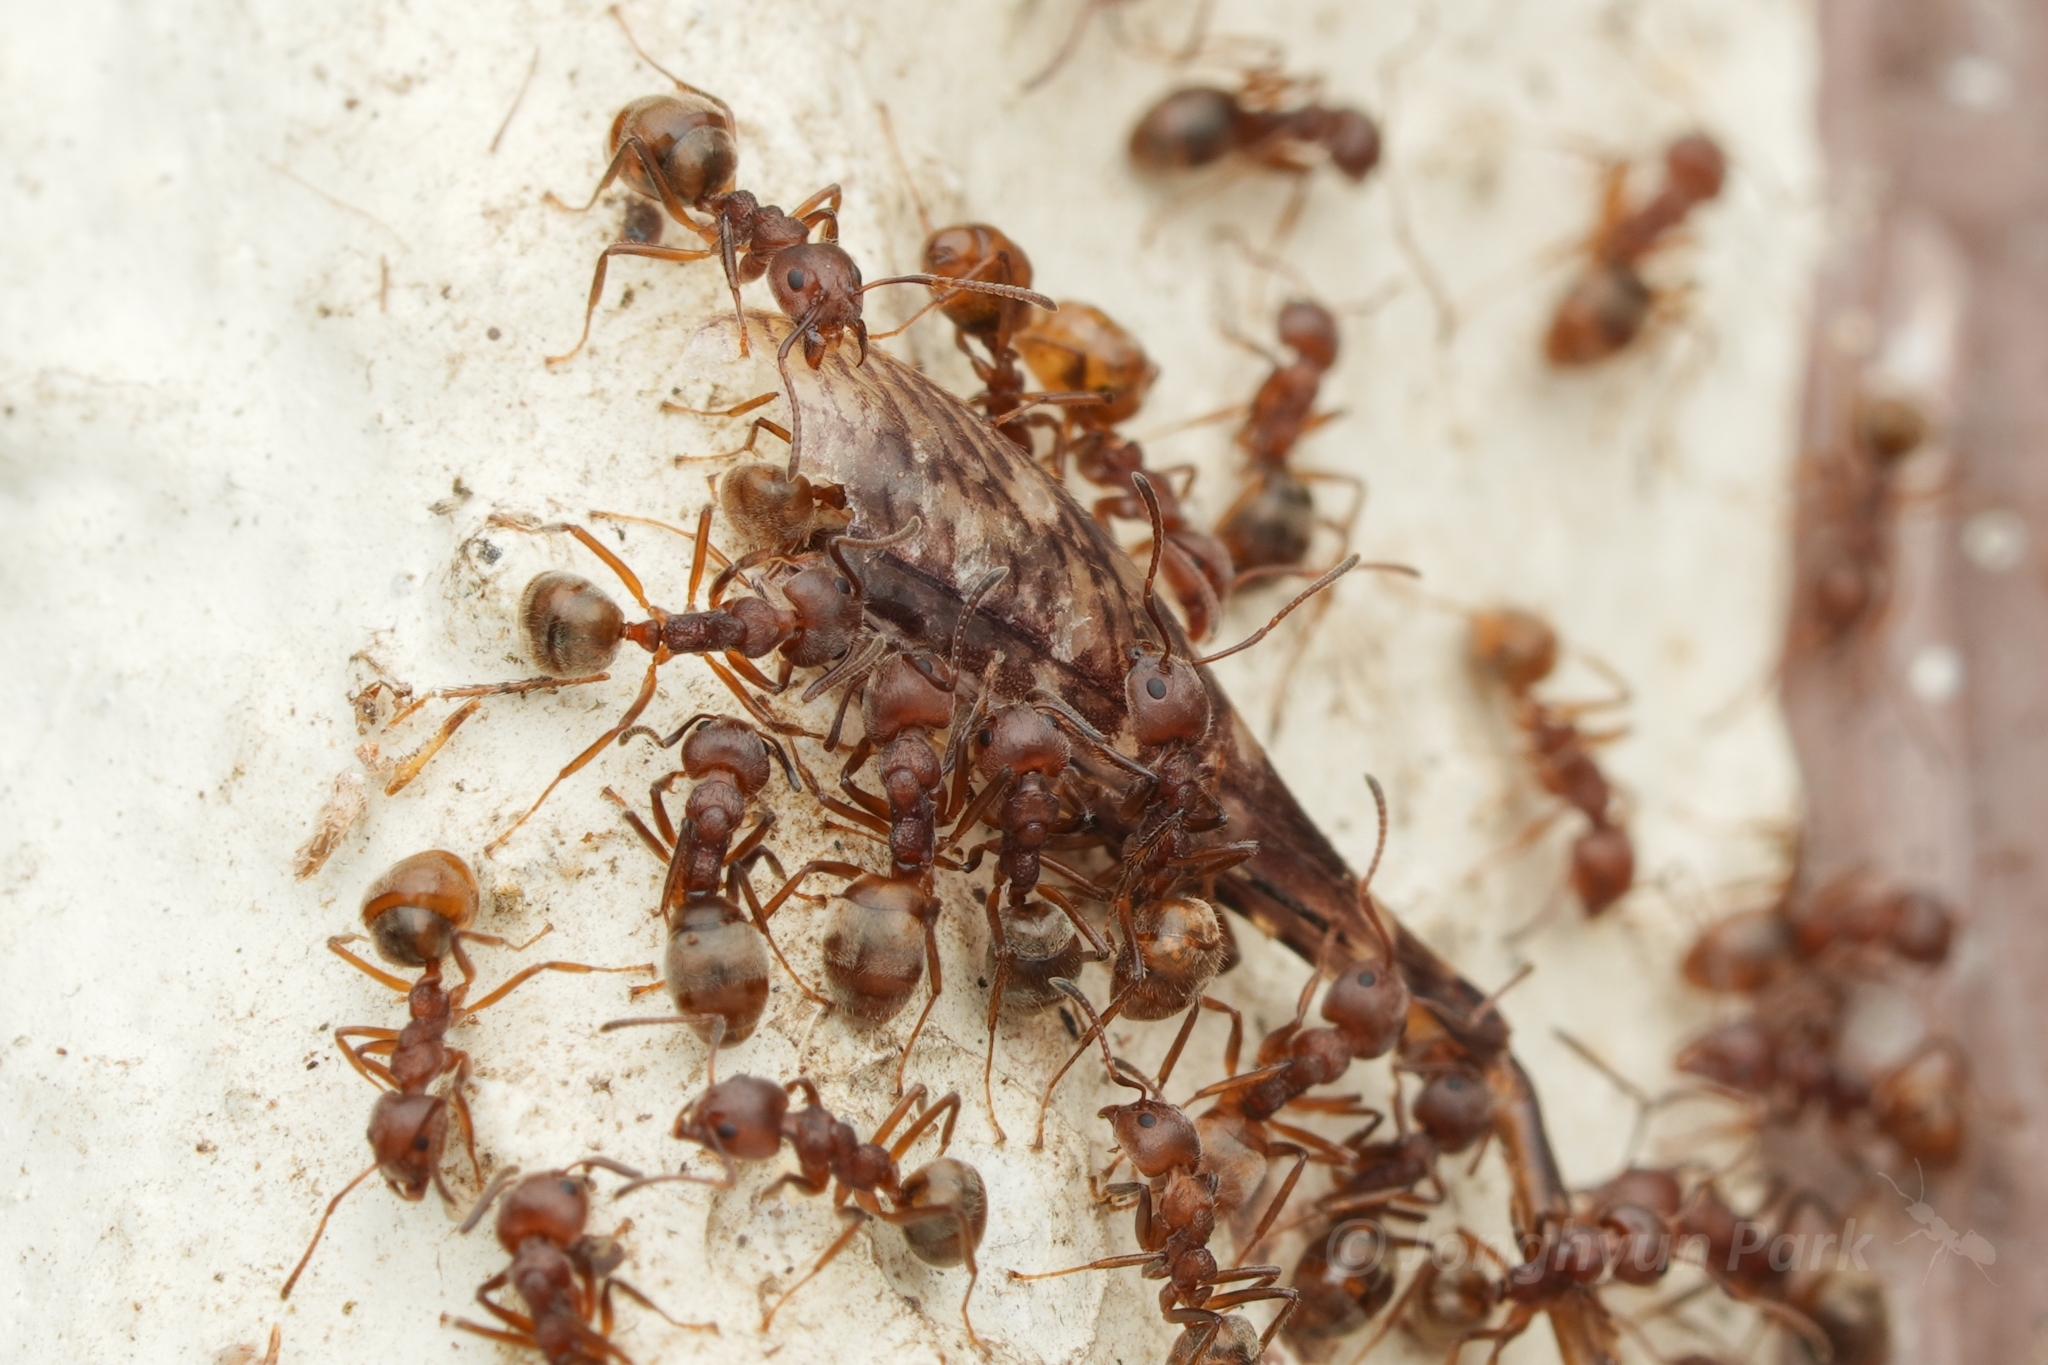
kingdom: Animalia
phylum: Arthropoda
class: Insecta
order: Hymenoptera
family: Formicidae
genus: Dolichoderus
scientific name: Dolichoderus thoracicus
